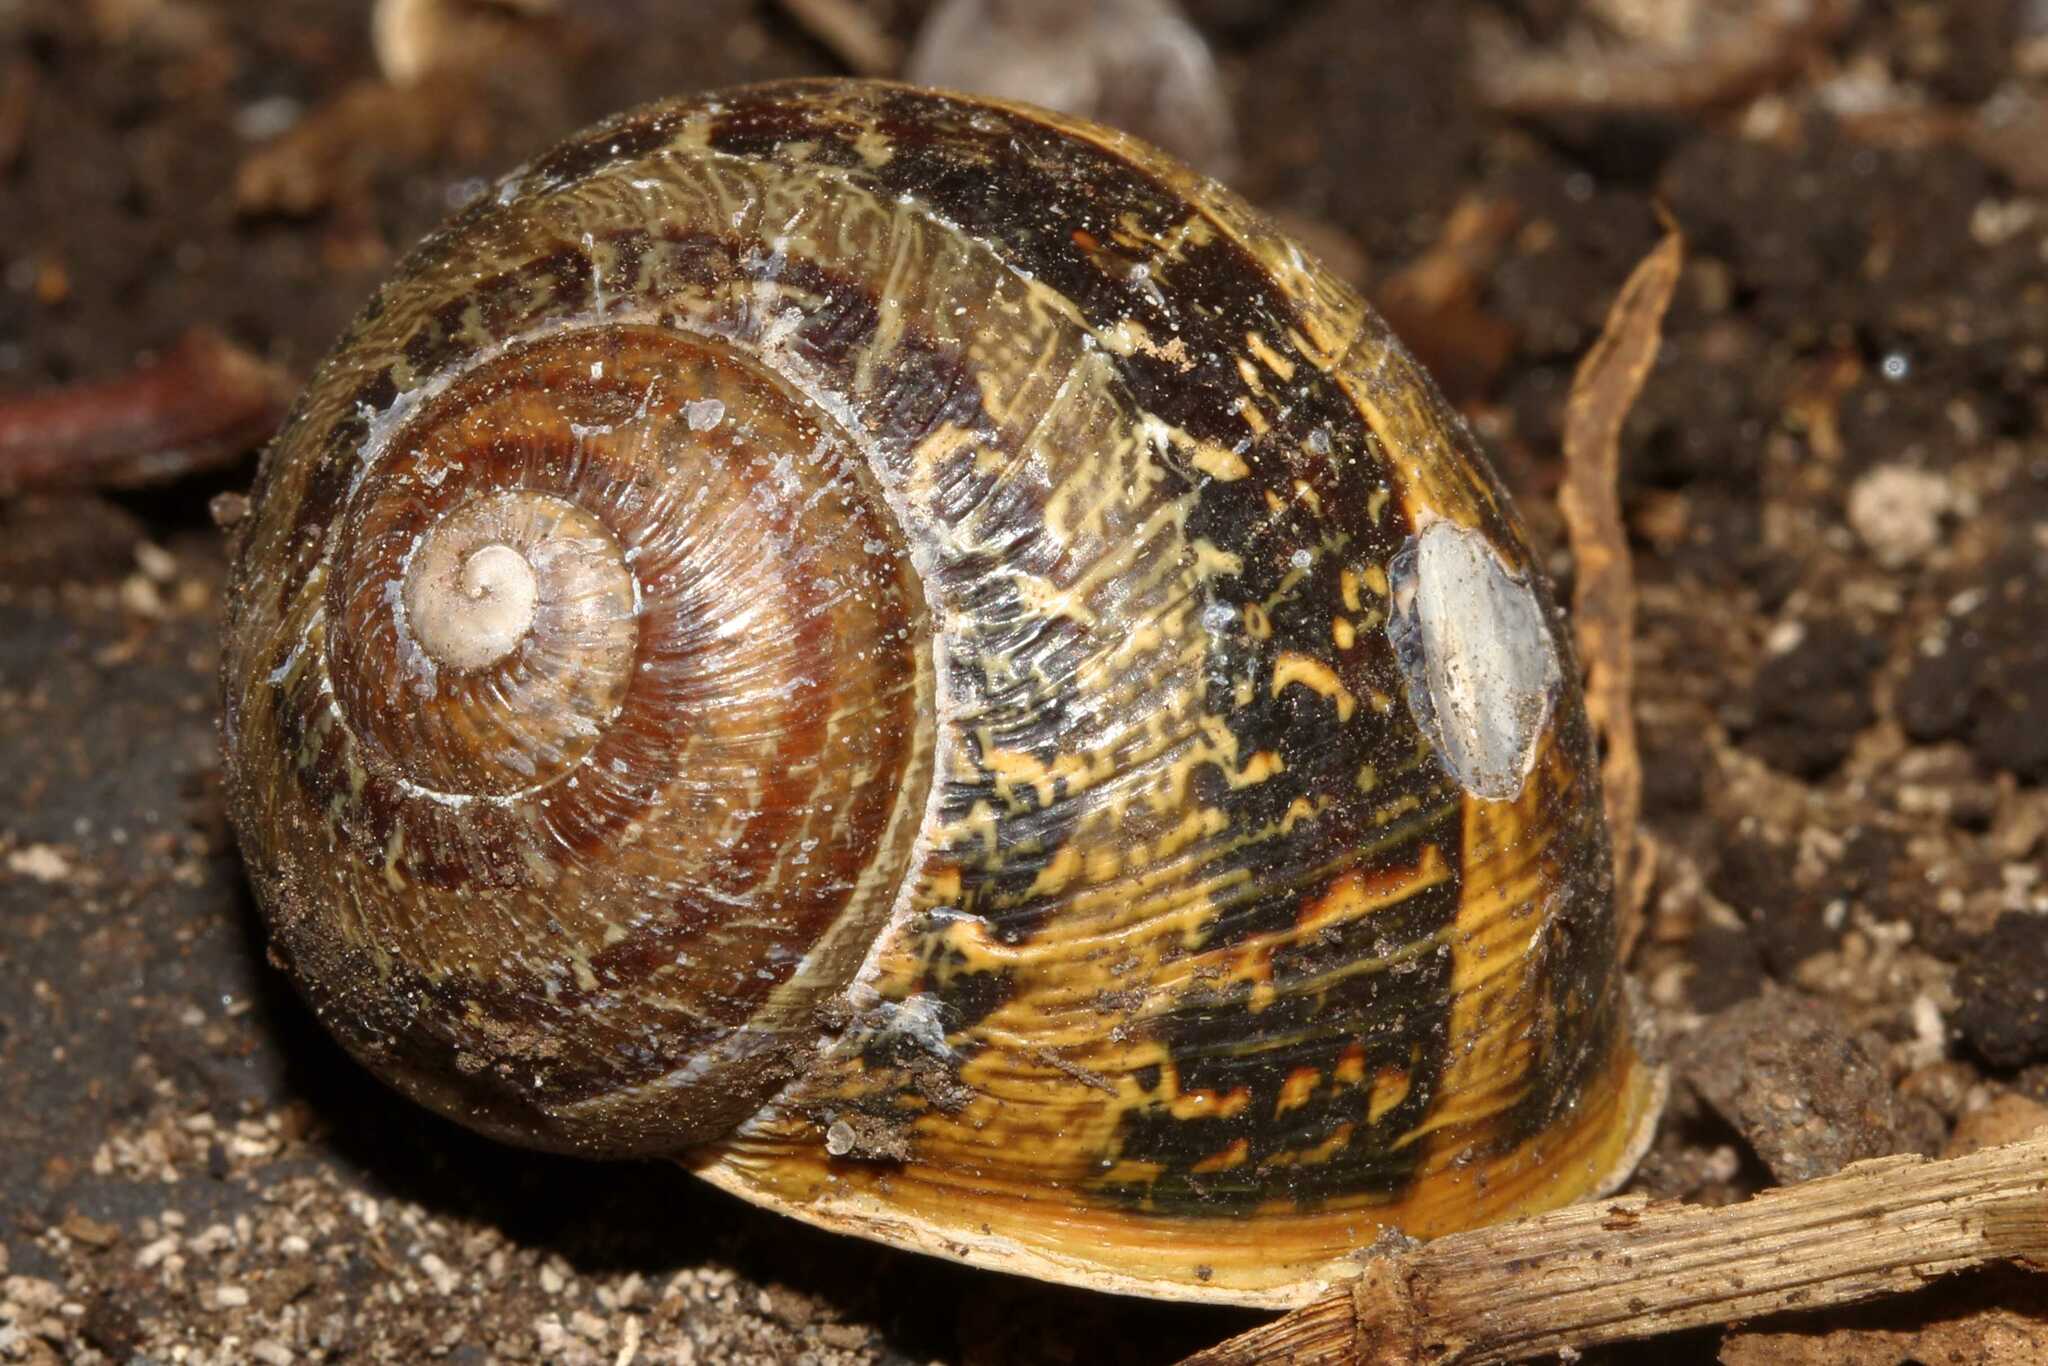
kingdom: Animalia
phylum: Mollusca
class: Gastropoda
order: Stylommatophora
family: Helicidae
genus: Cornu
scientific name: Cornu aspersum
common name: Brown garden snail
